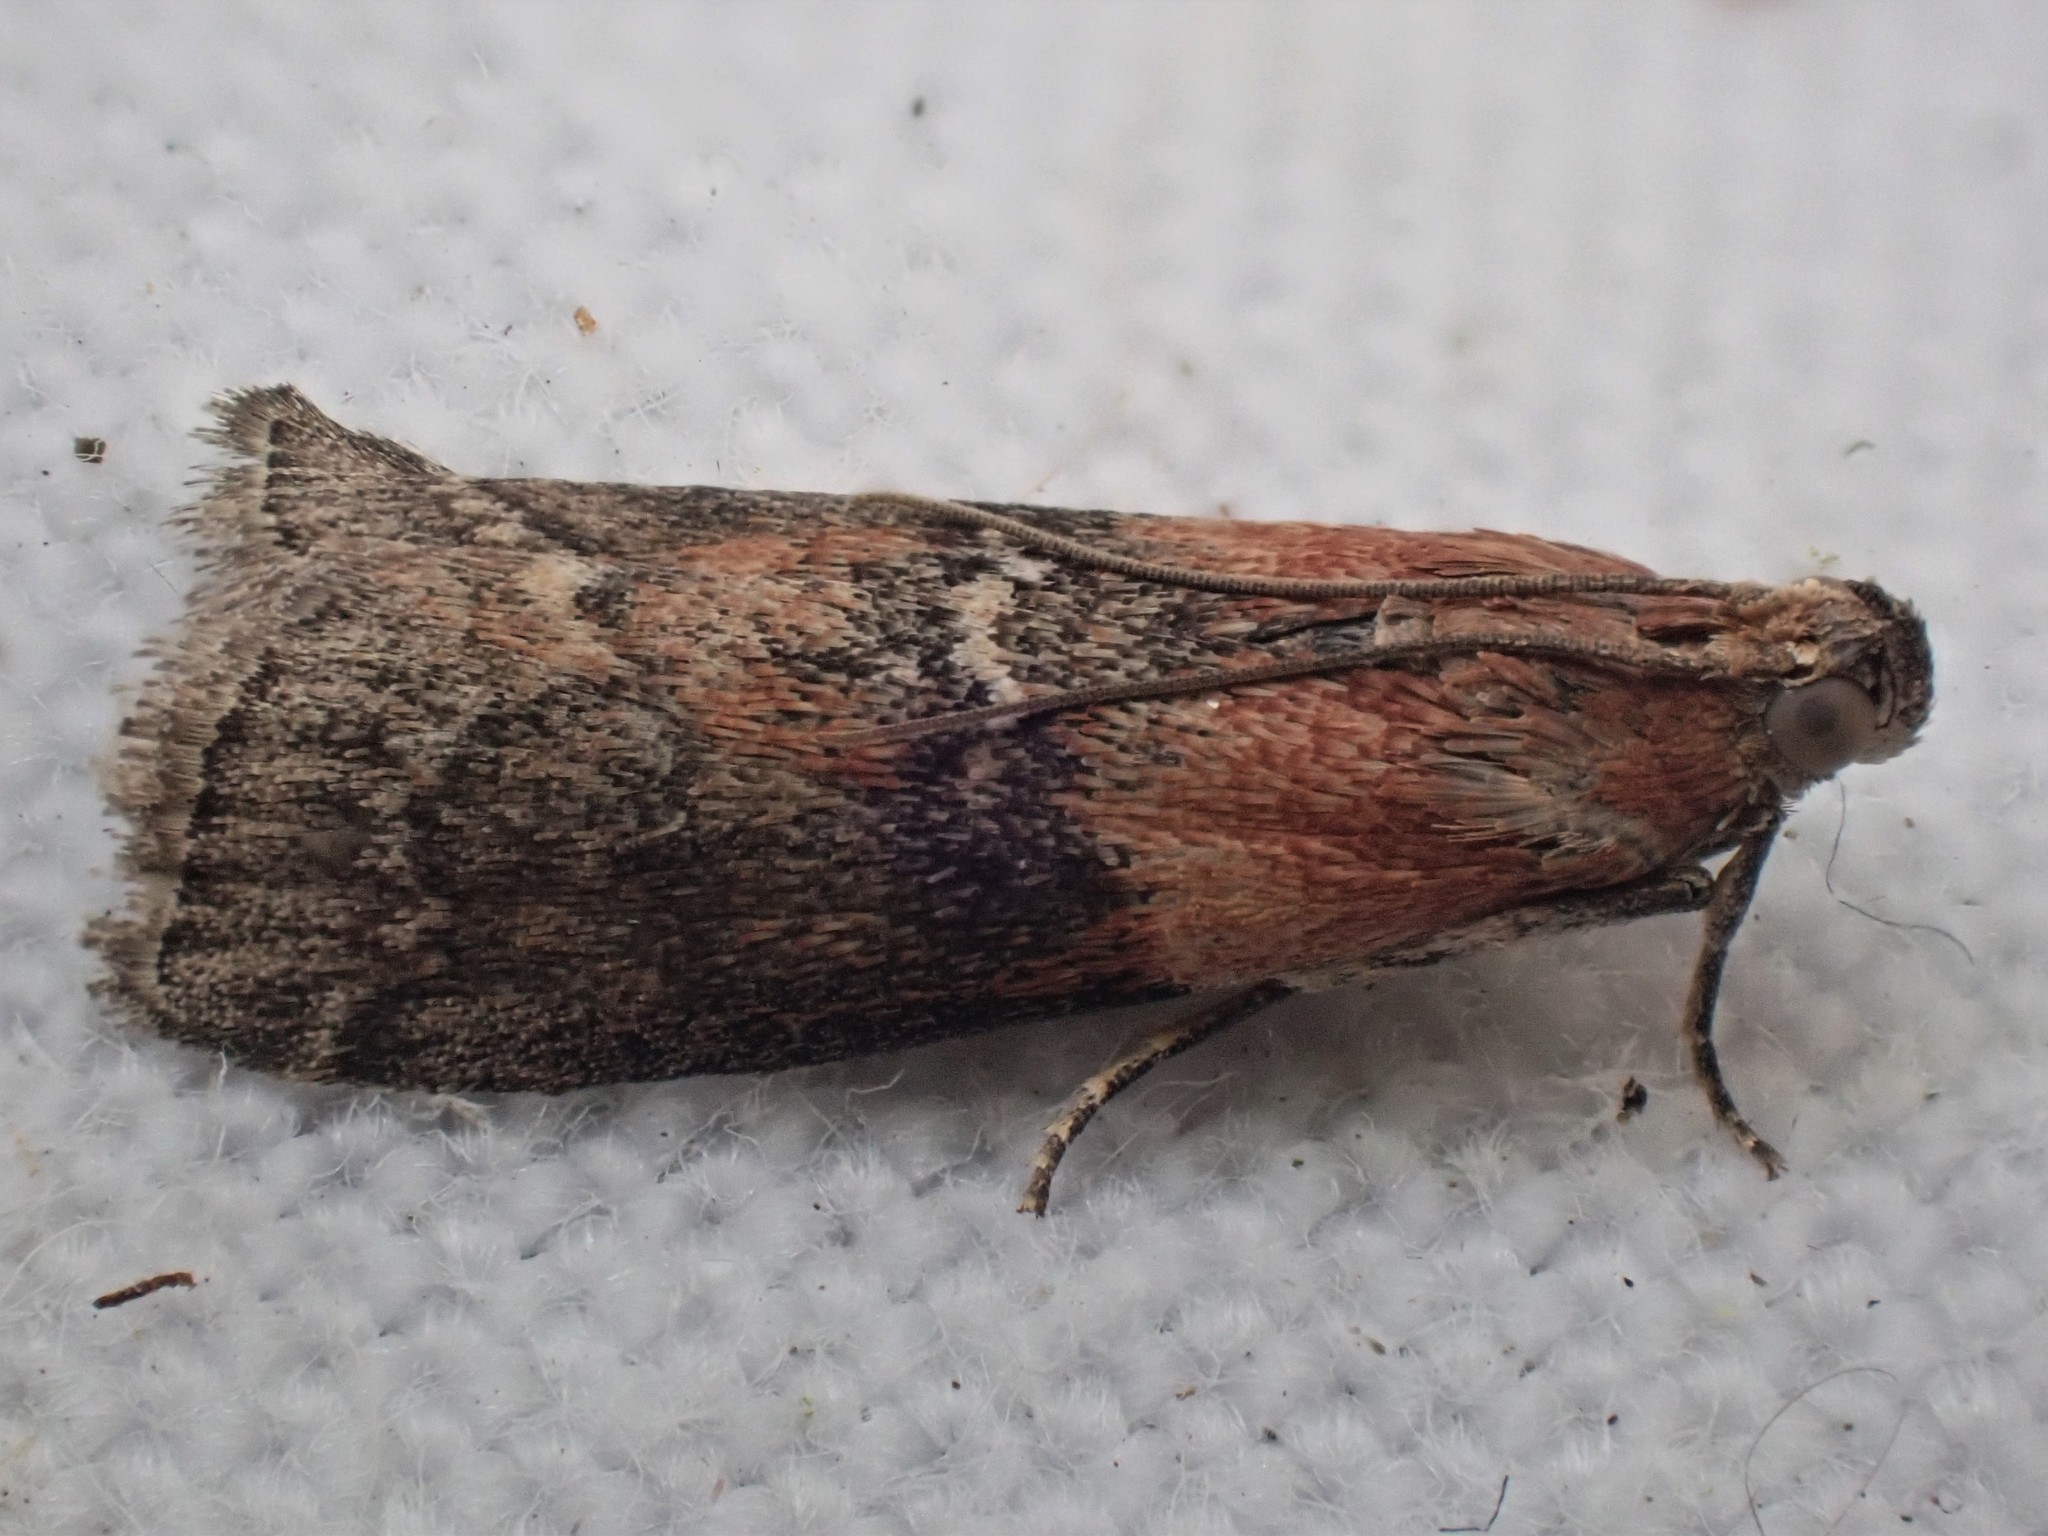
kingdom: Animalia
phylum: Arthropoda
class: Insecta
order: Lepidoptera
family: Pyralidae
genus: Sciota
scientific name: Sciota adelphella
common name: Willow knot-horn
